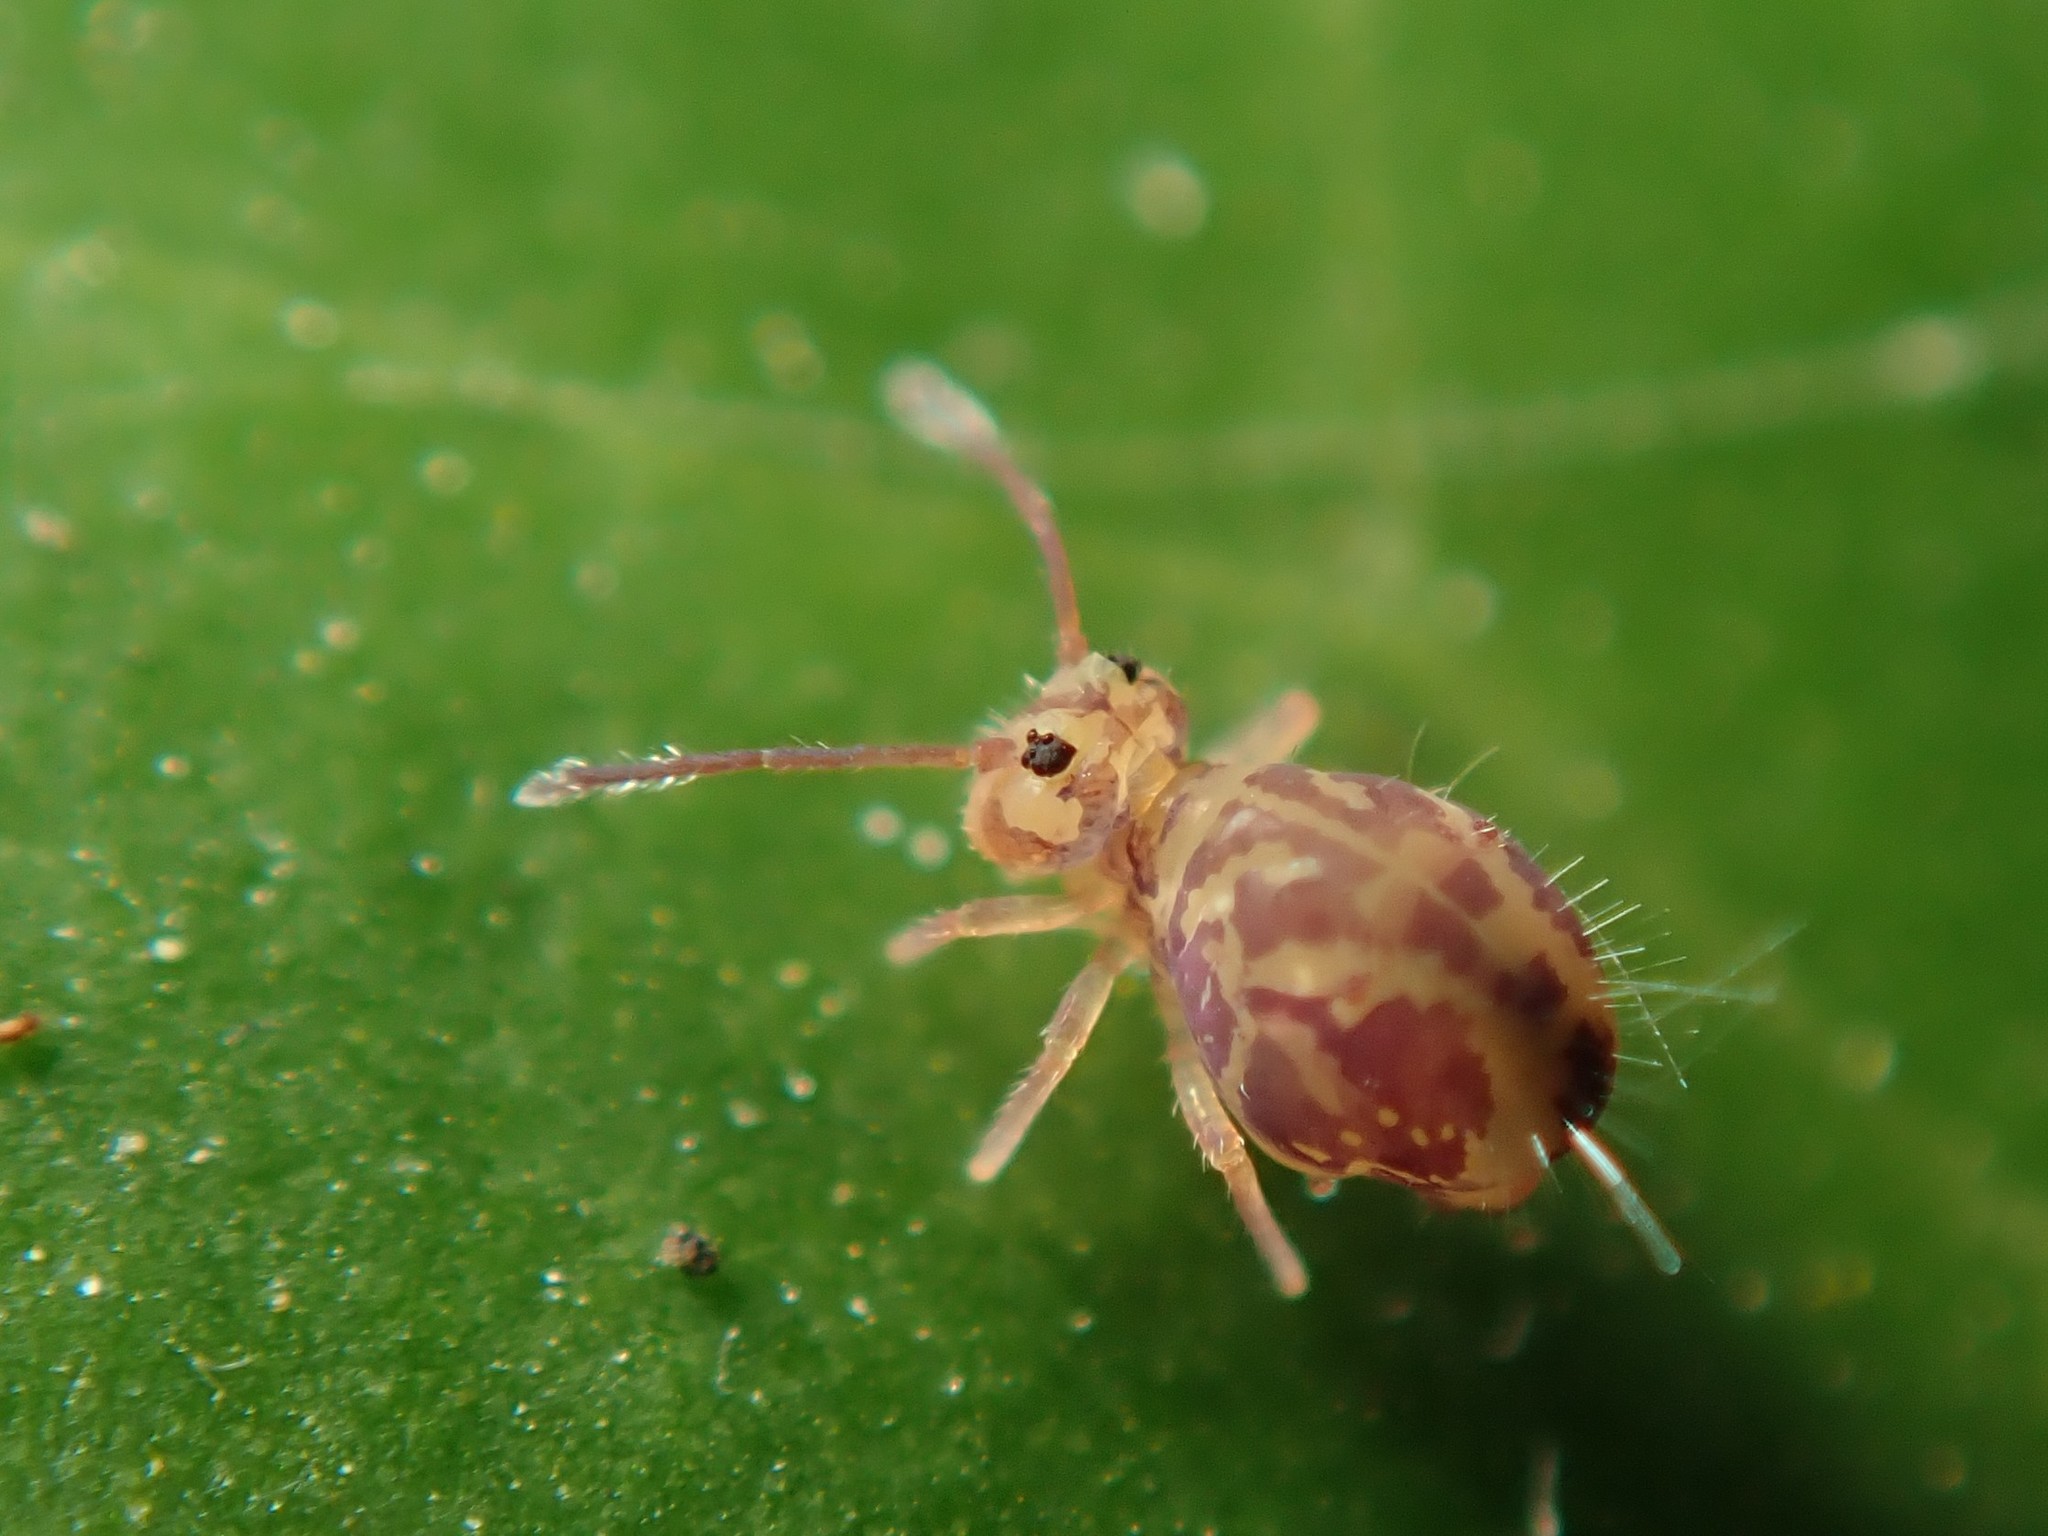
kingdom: Animalia
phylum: Arthropoda
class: Collembola
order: Symphypleona
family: Dicyrtomidae
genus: Dicyrtomina
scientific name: Dicyrtomina ornata
